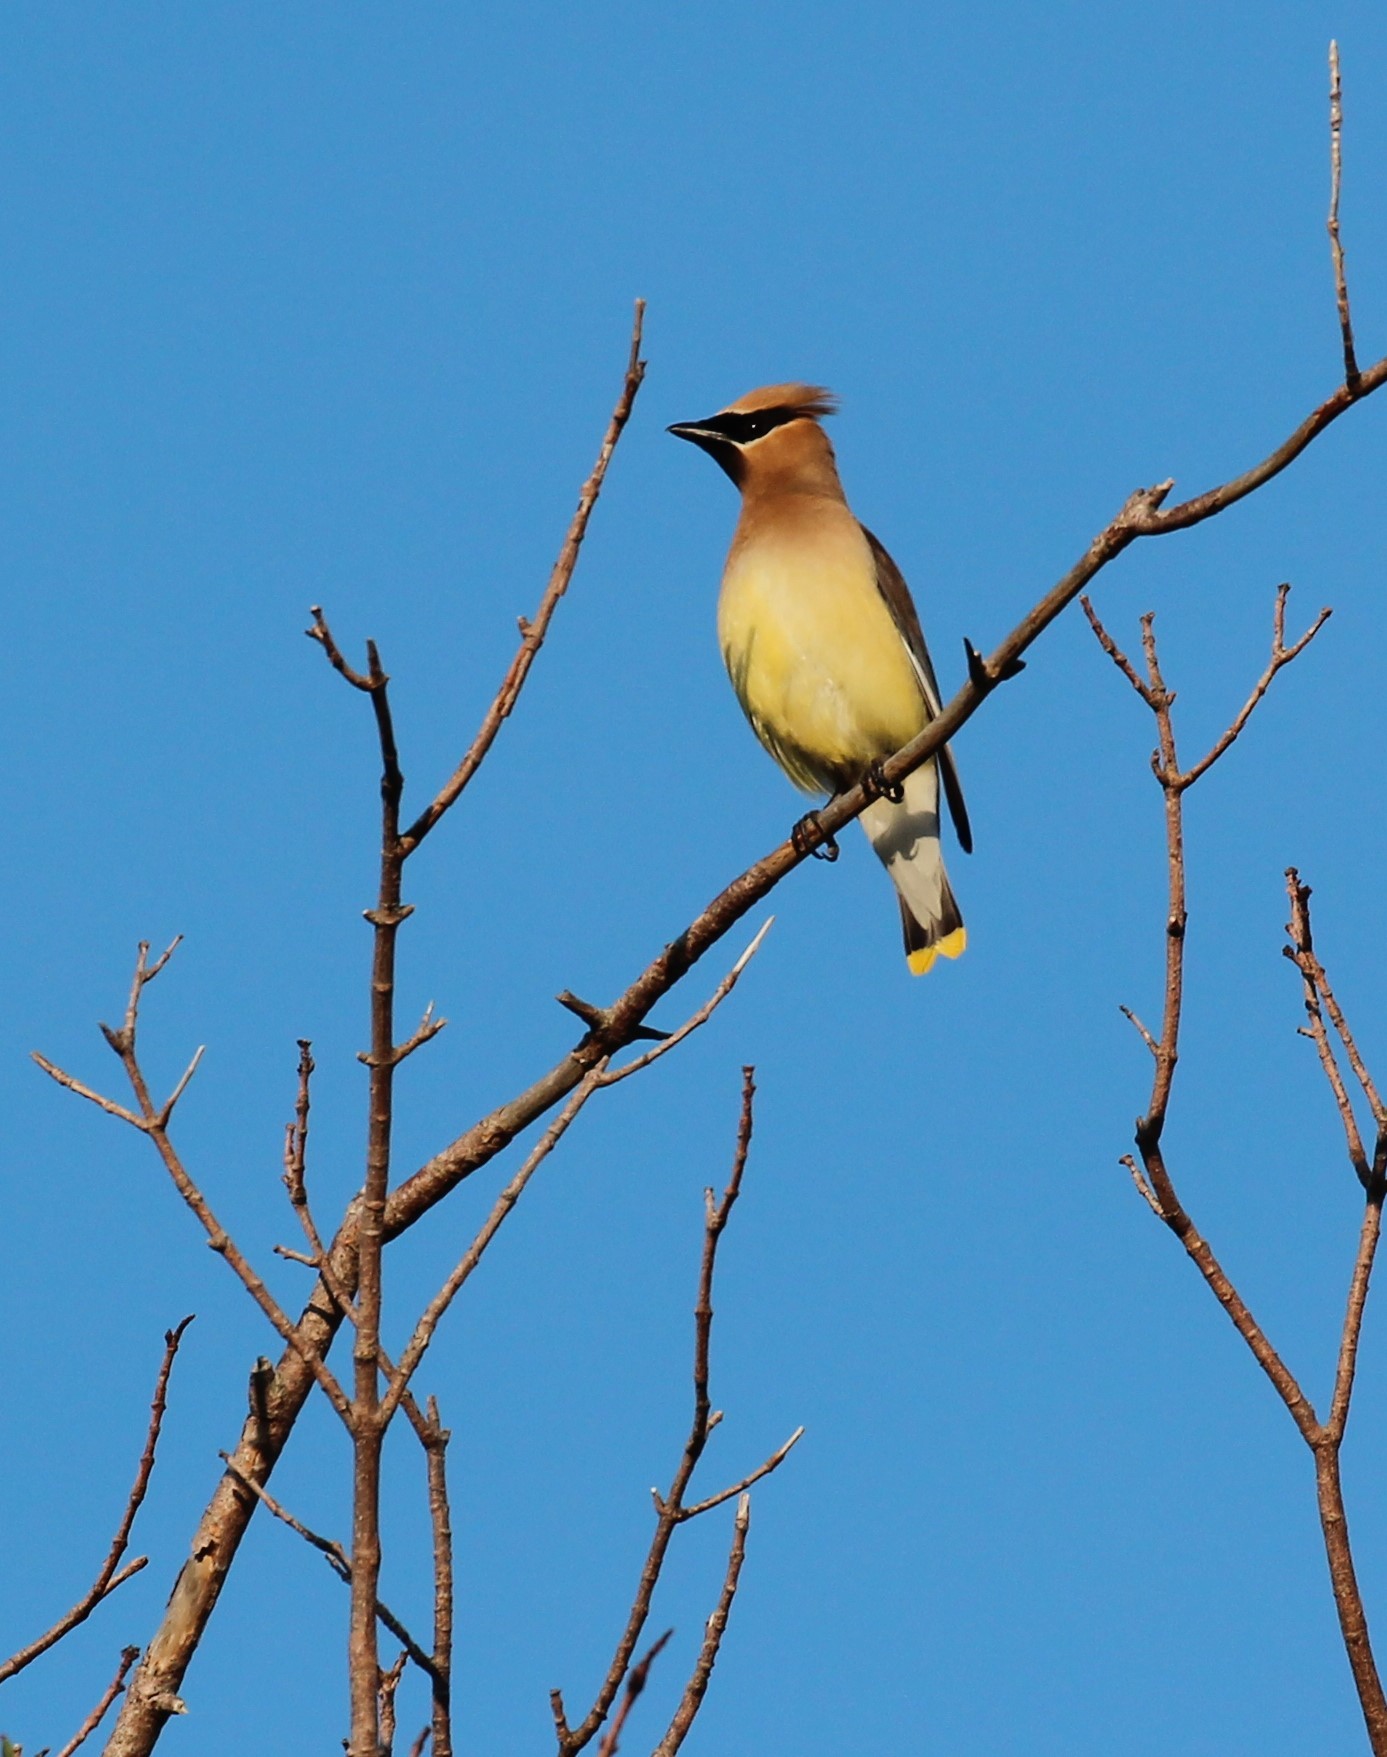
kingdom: Animalia
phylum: Chordata
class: Aves
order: Passeriformes
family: Bombycillidae
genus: Bombycilla
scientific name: Bombycilla cedrorum
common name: Cedar waxwing
